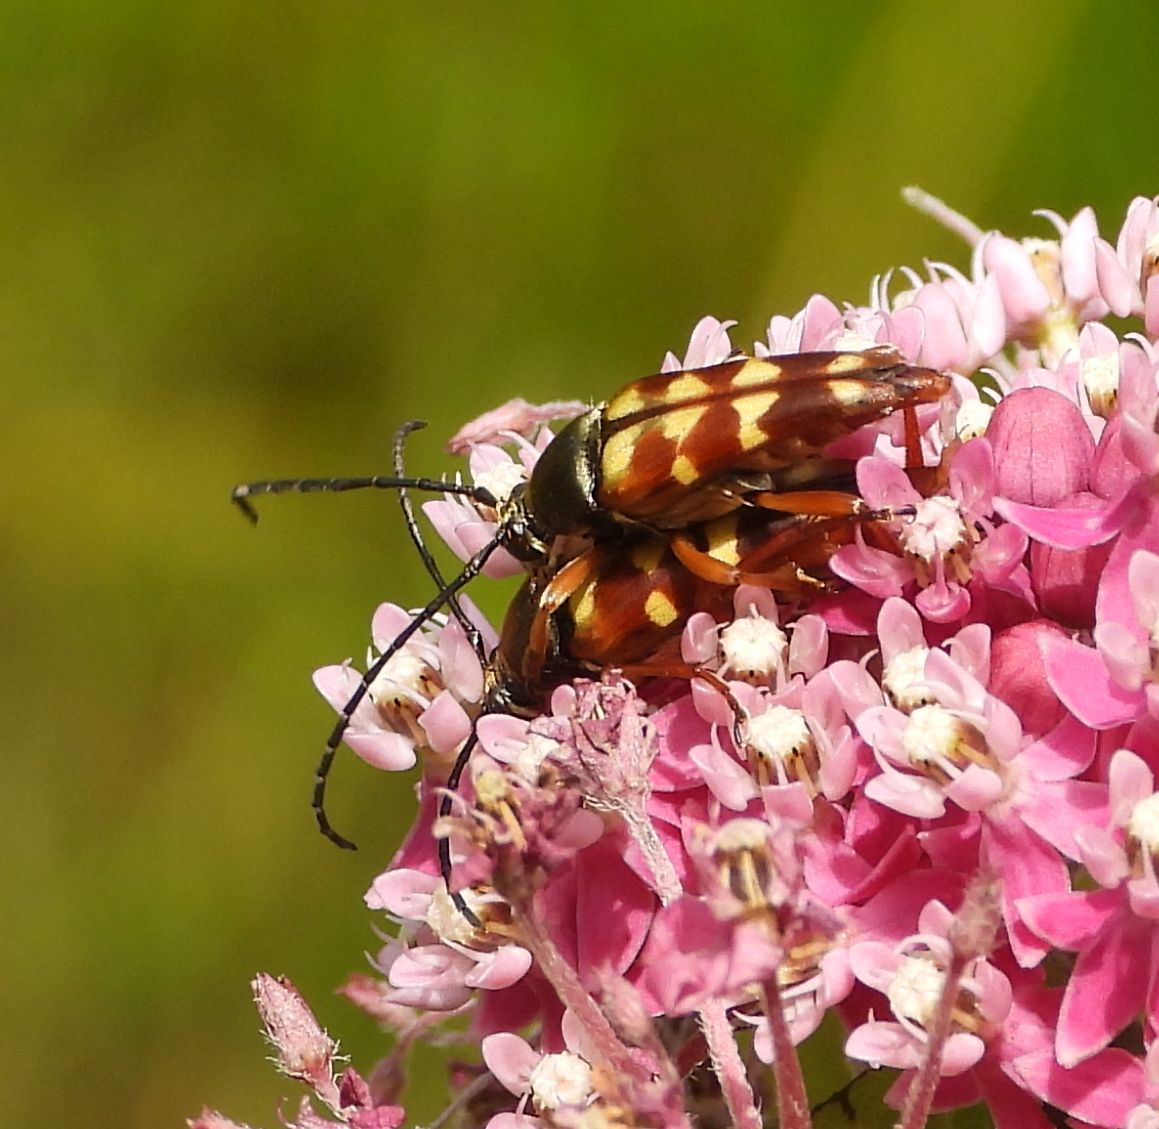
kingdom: Animalia
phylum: Arthropoda
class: Insecta
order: Coleoptera
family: Cerambycidae
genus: Typocerus
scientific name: Typocerus velutinus
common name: Banded longhorn beetle
